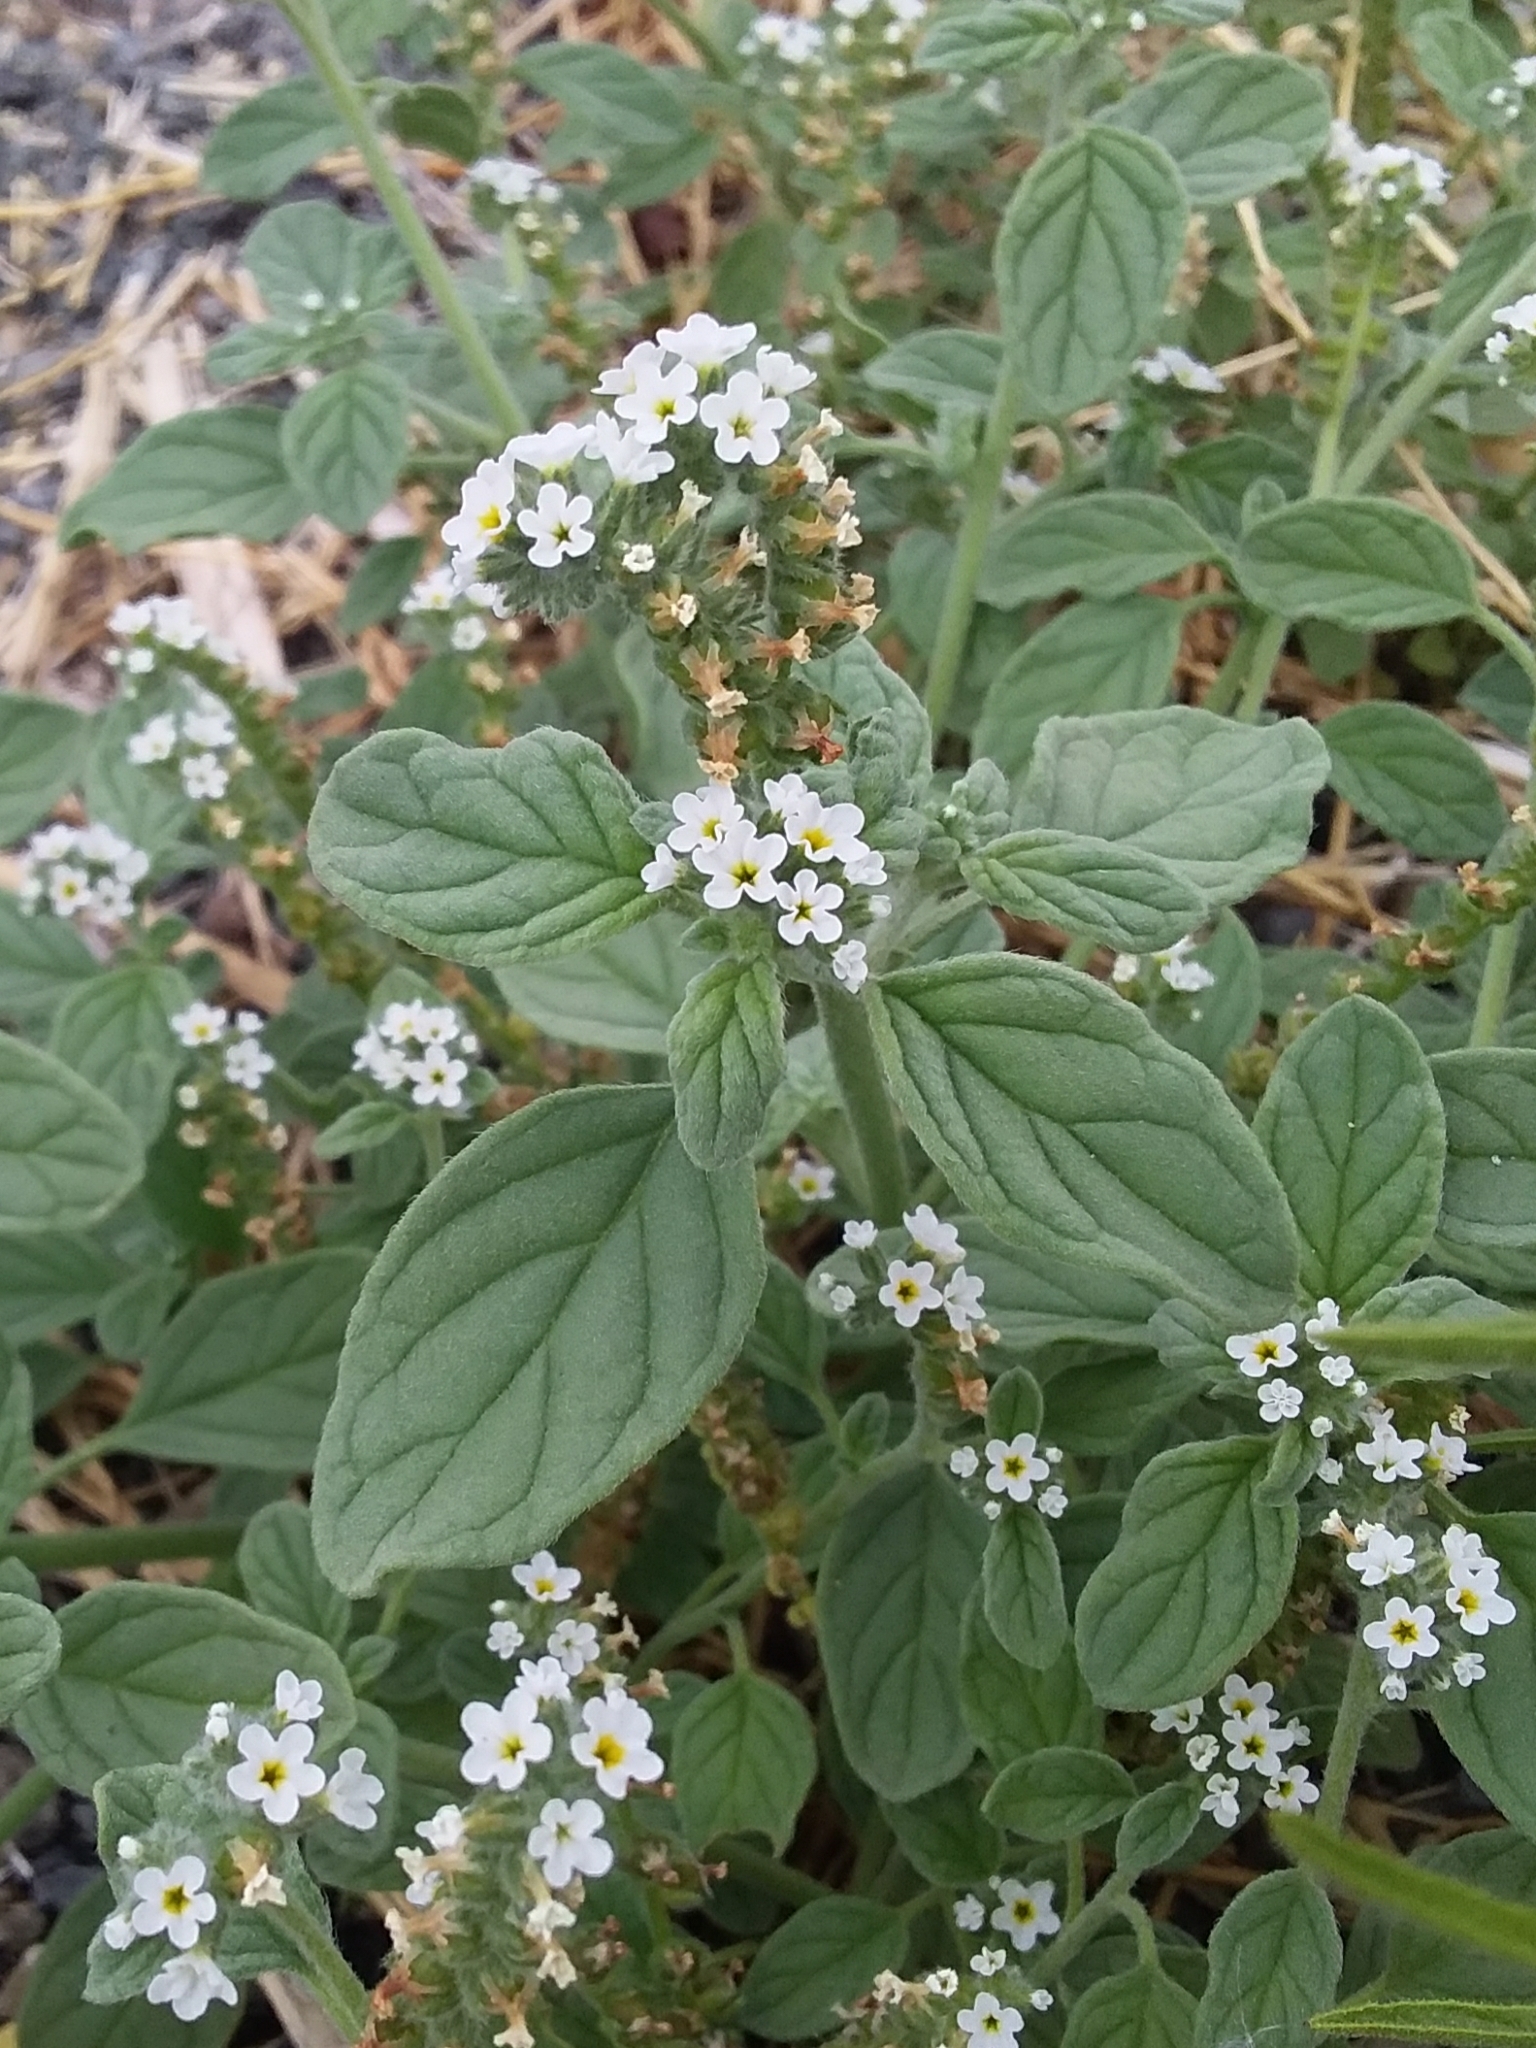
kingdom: Plantae
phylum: Tracheophyta
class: Magnoliopsida
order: Boraginales
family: Heliotropiaceae
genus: Heliotropium
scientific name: Heliotropium europaeum
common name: European heliotrope
